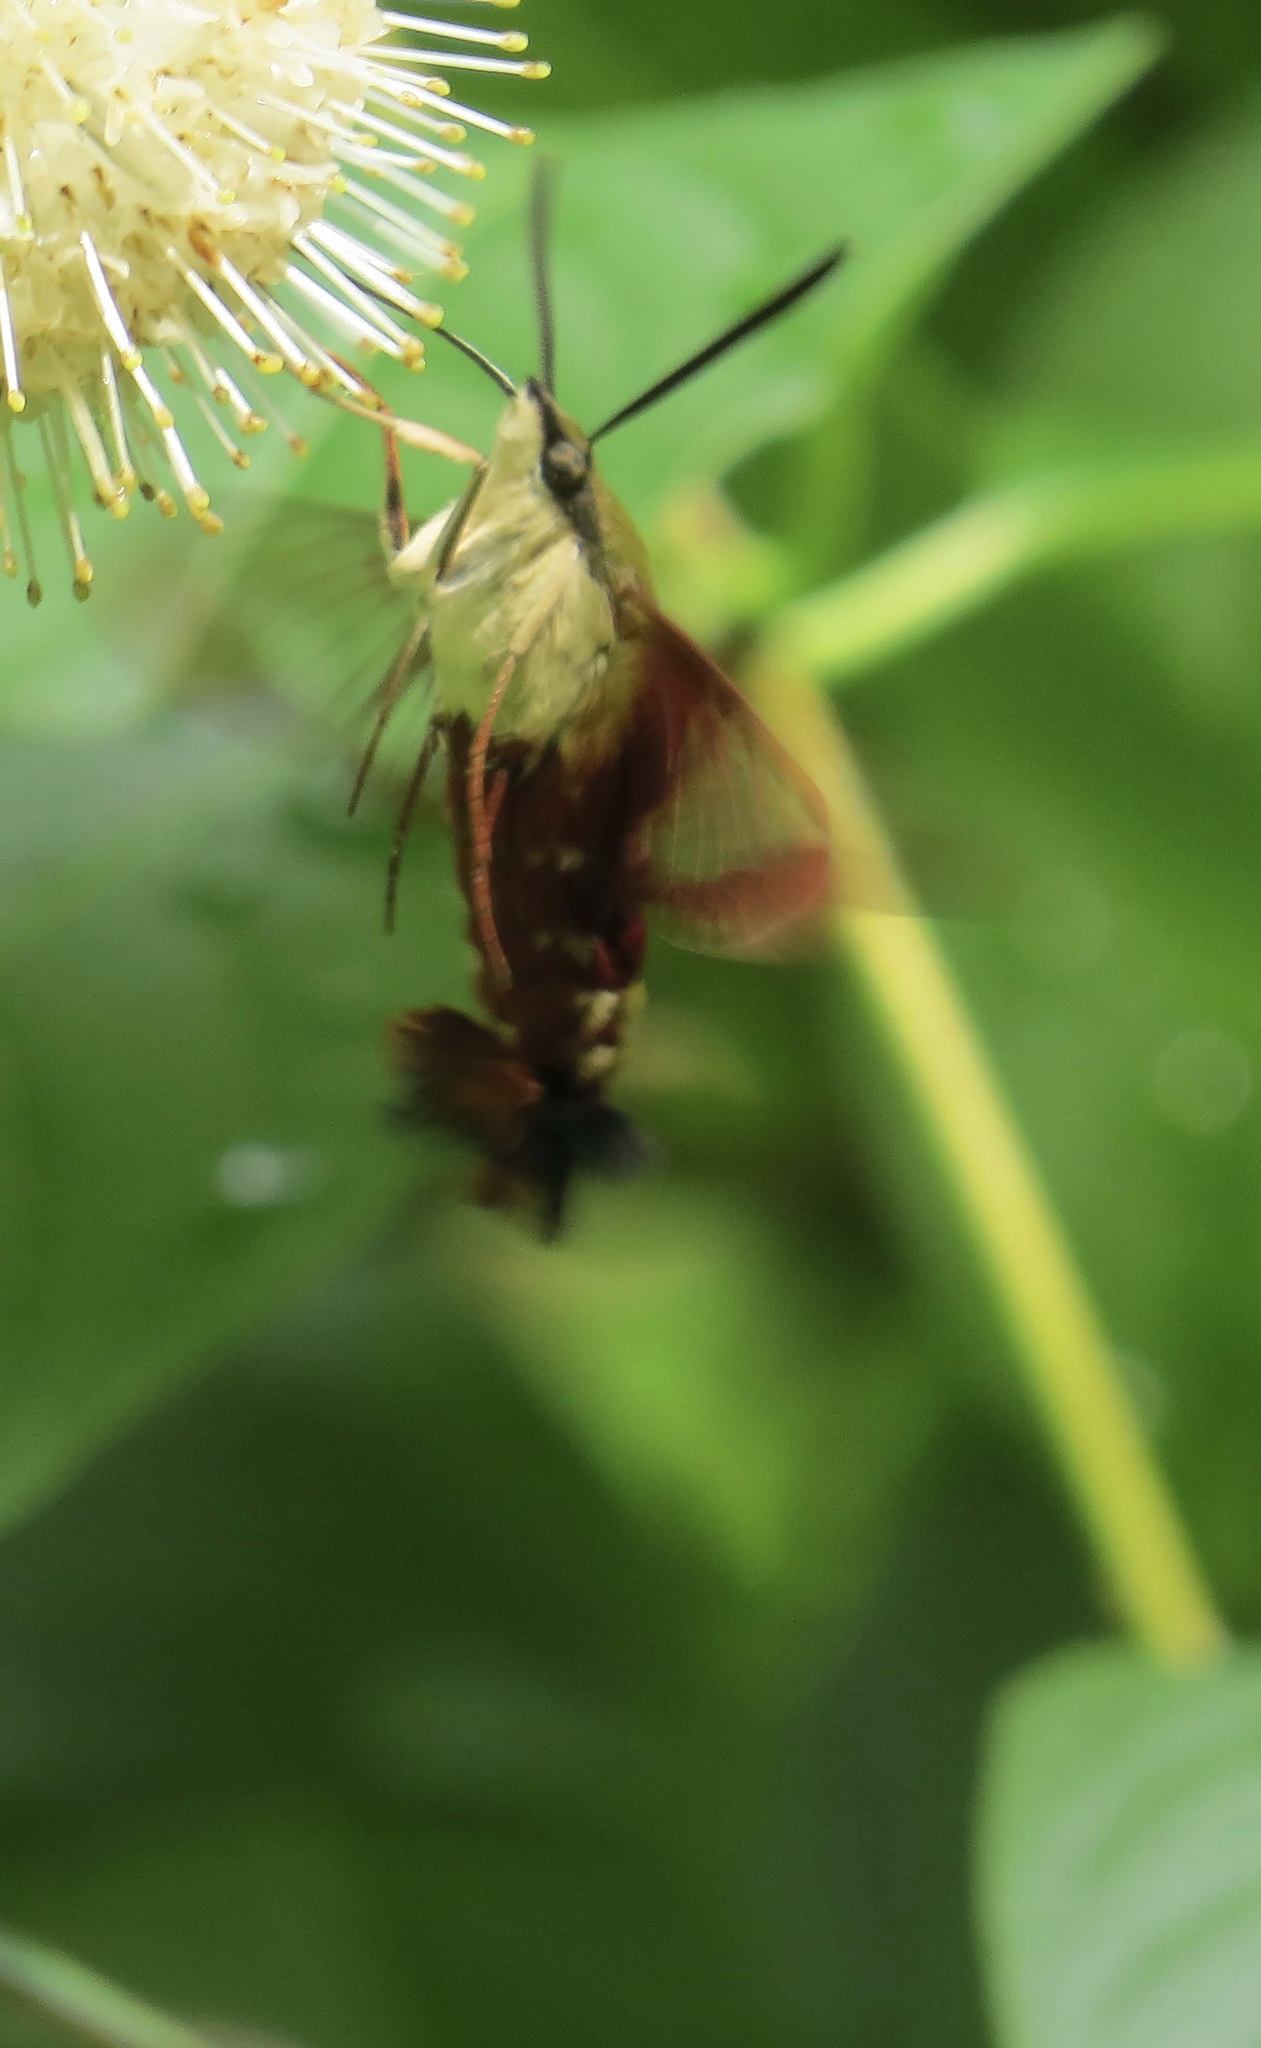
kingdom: Animalia
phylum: Arthropoda
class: Insecta
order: Lepidoptera
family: Sphingidae
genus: Hemaris
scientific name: Hemaris thysbe
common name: Common clear-wing
